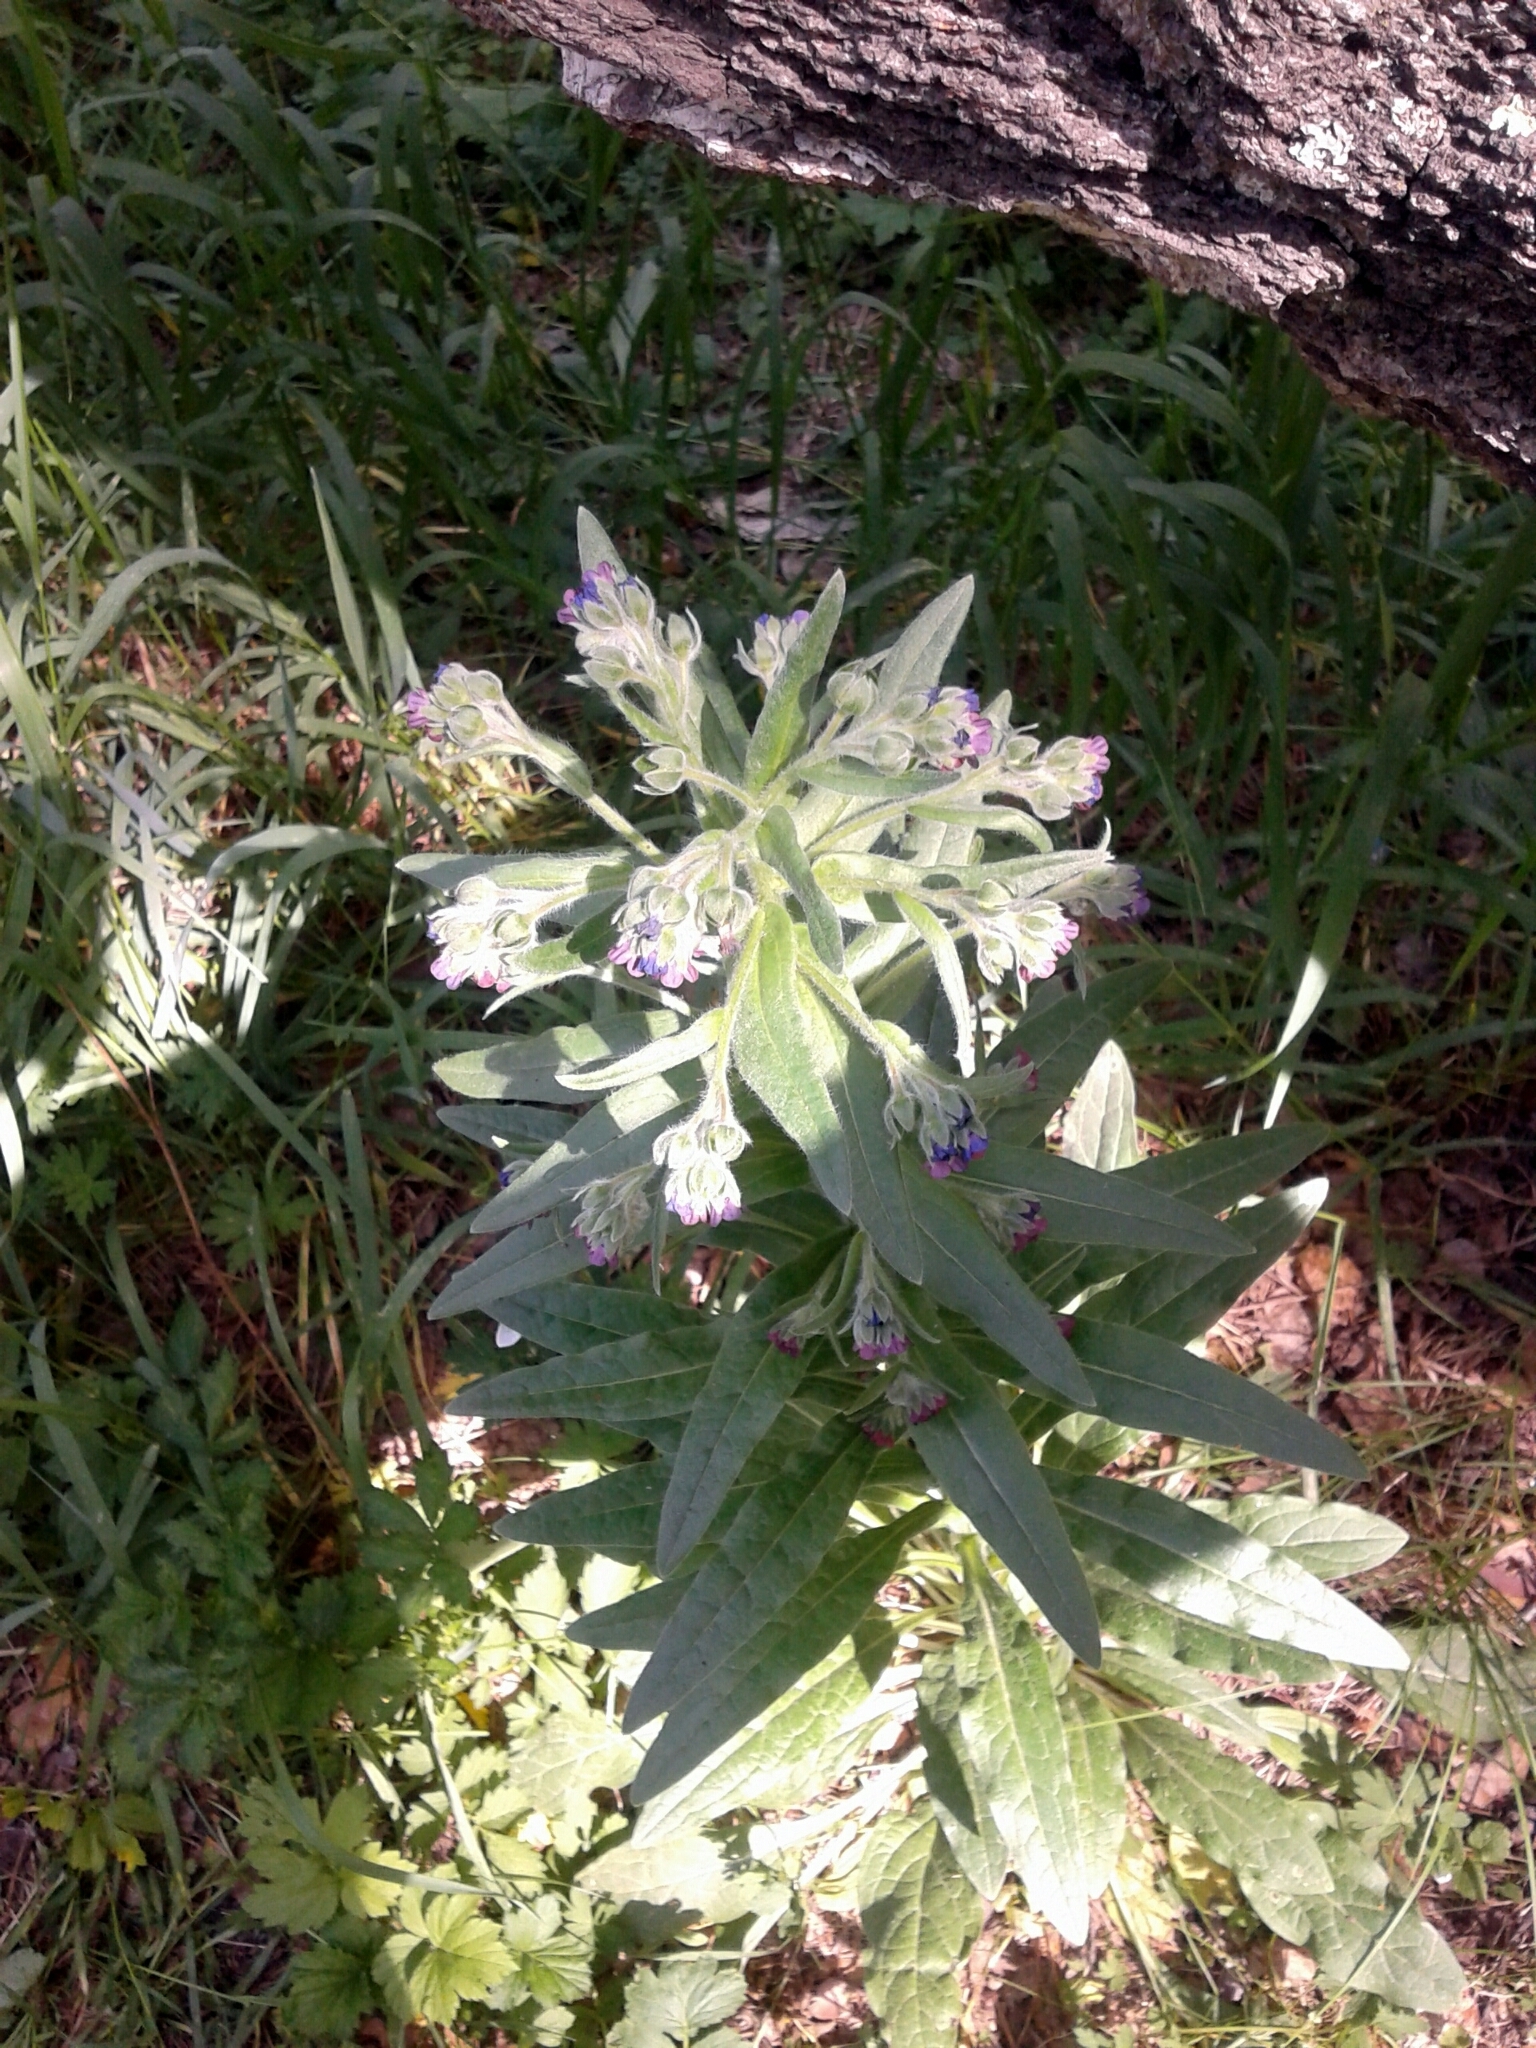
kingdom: Plantae
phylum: Tracheophyta
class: Magnoliopsida
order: Boraginales
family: Boraginaceae
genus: Cynoglossum
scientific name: Cynoglossum officinale
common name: Hound's-tongue
